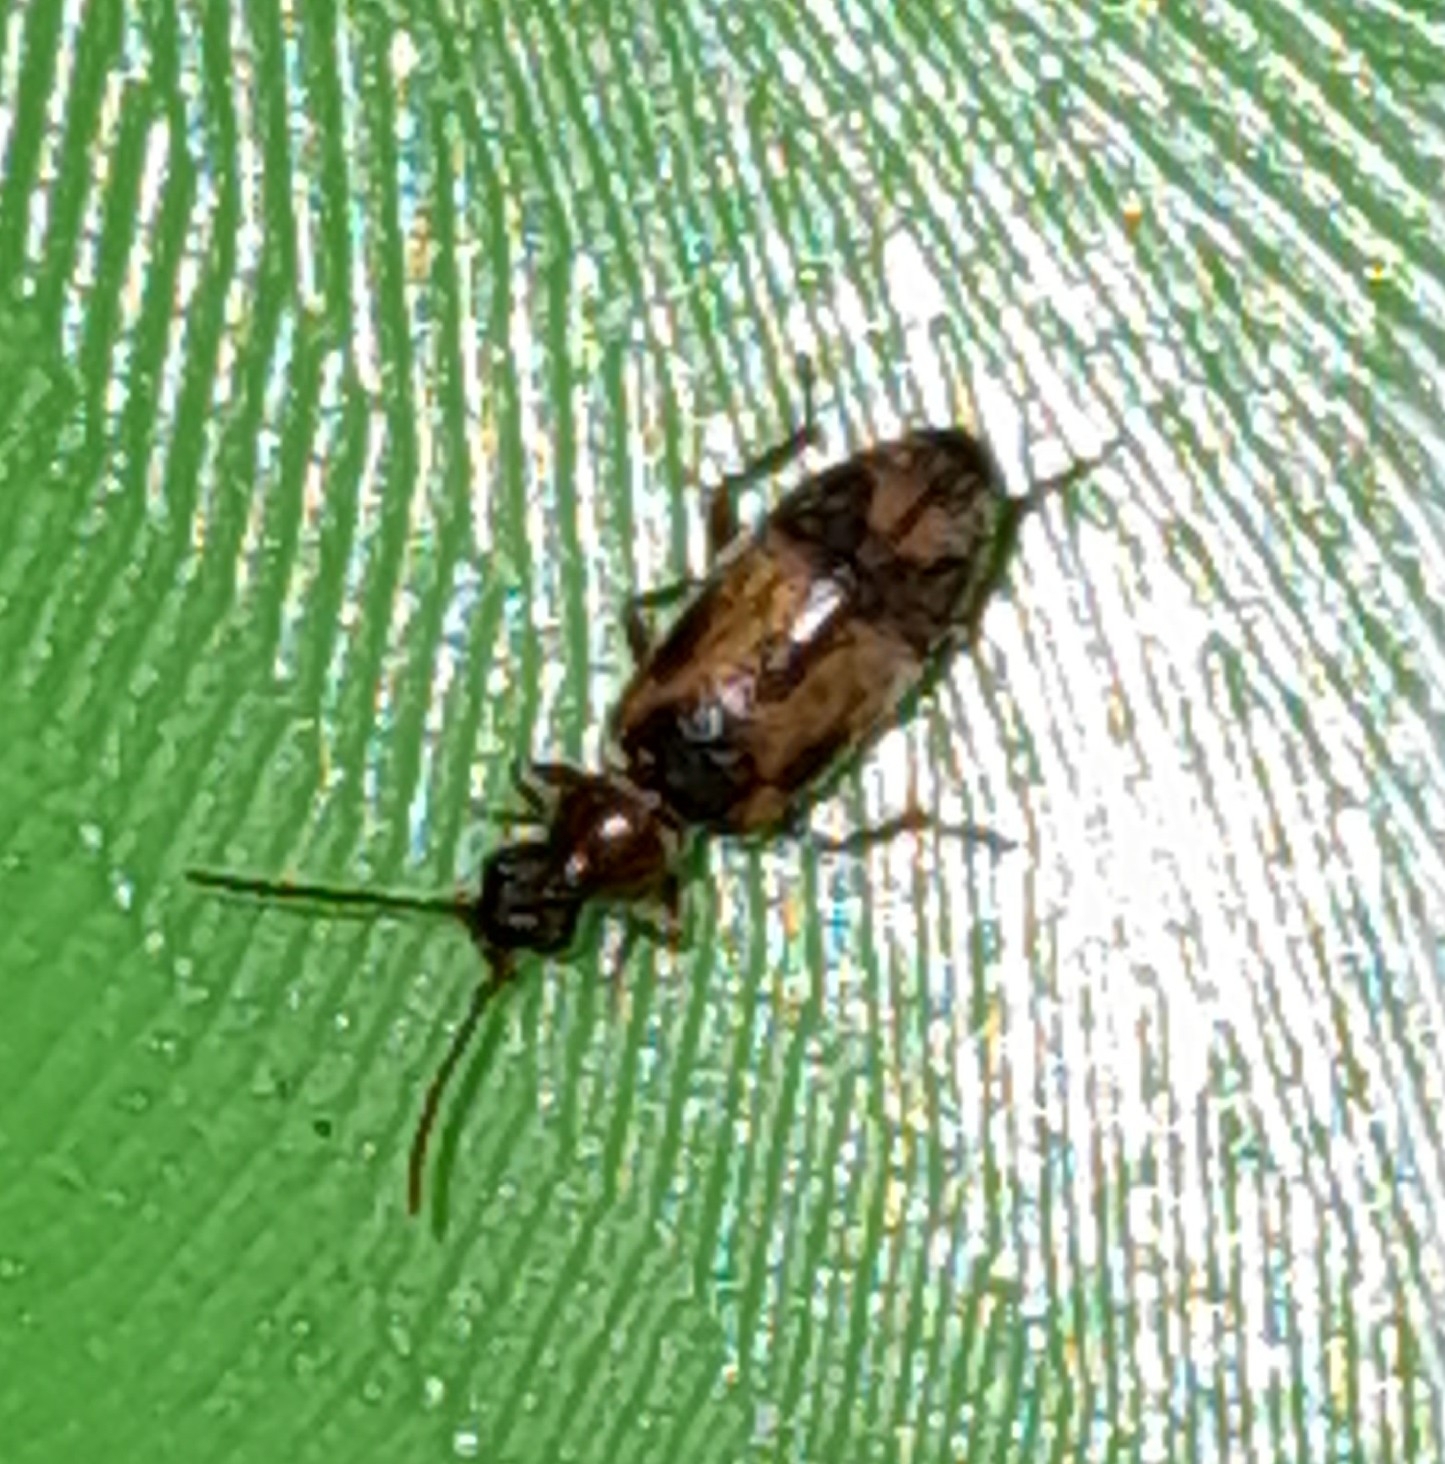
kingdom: Animalia
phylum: Arthropoda
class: Insecta
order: Coleoptera
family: Anthicidae
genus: Notoxus
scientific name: Notoxus monoceros
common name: Monoceros beetle
